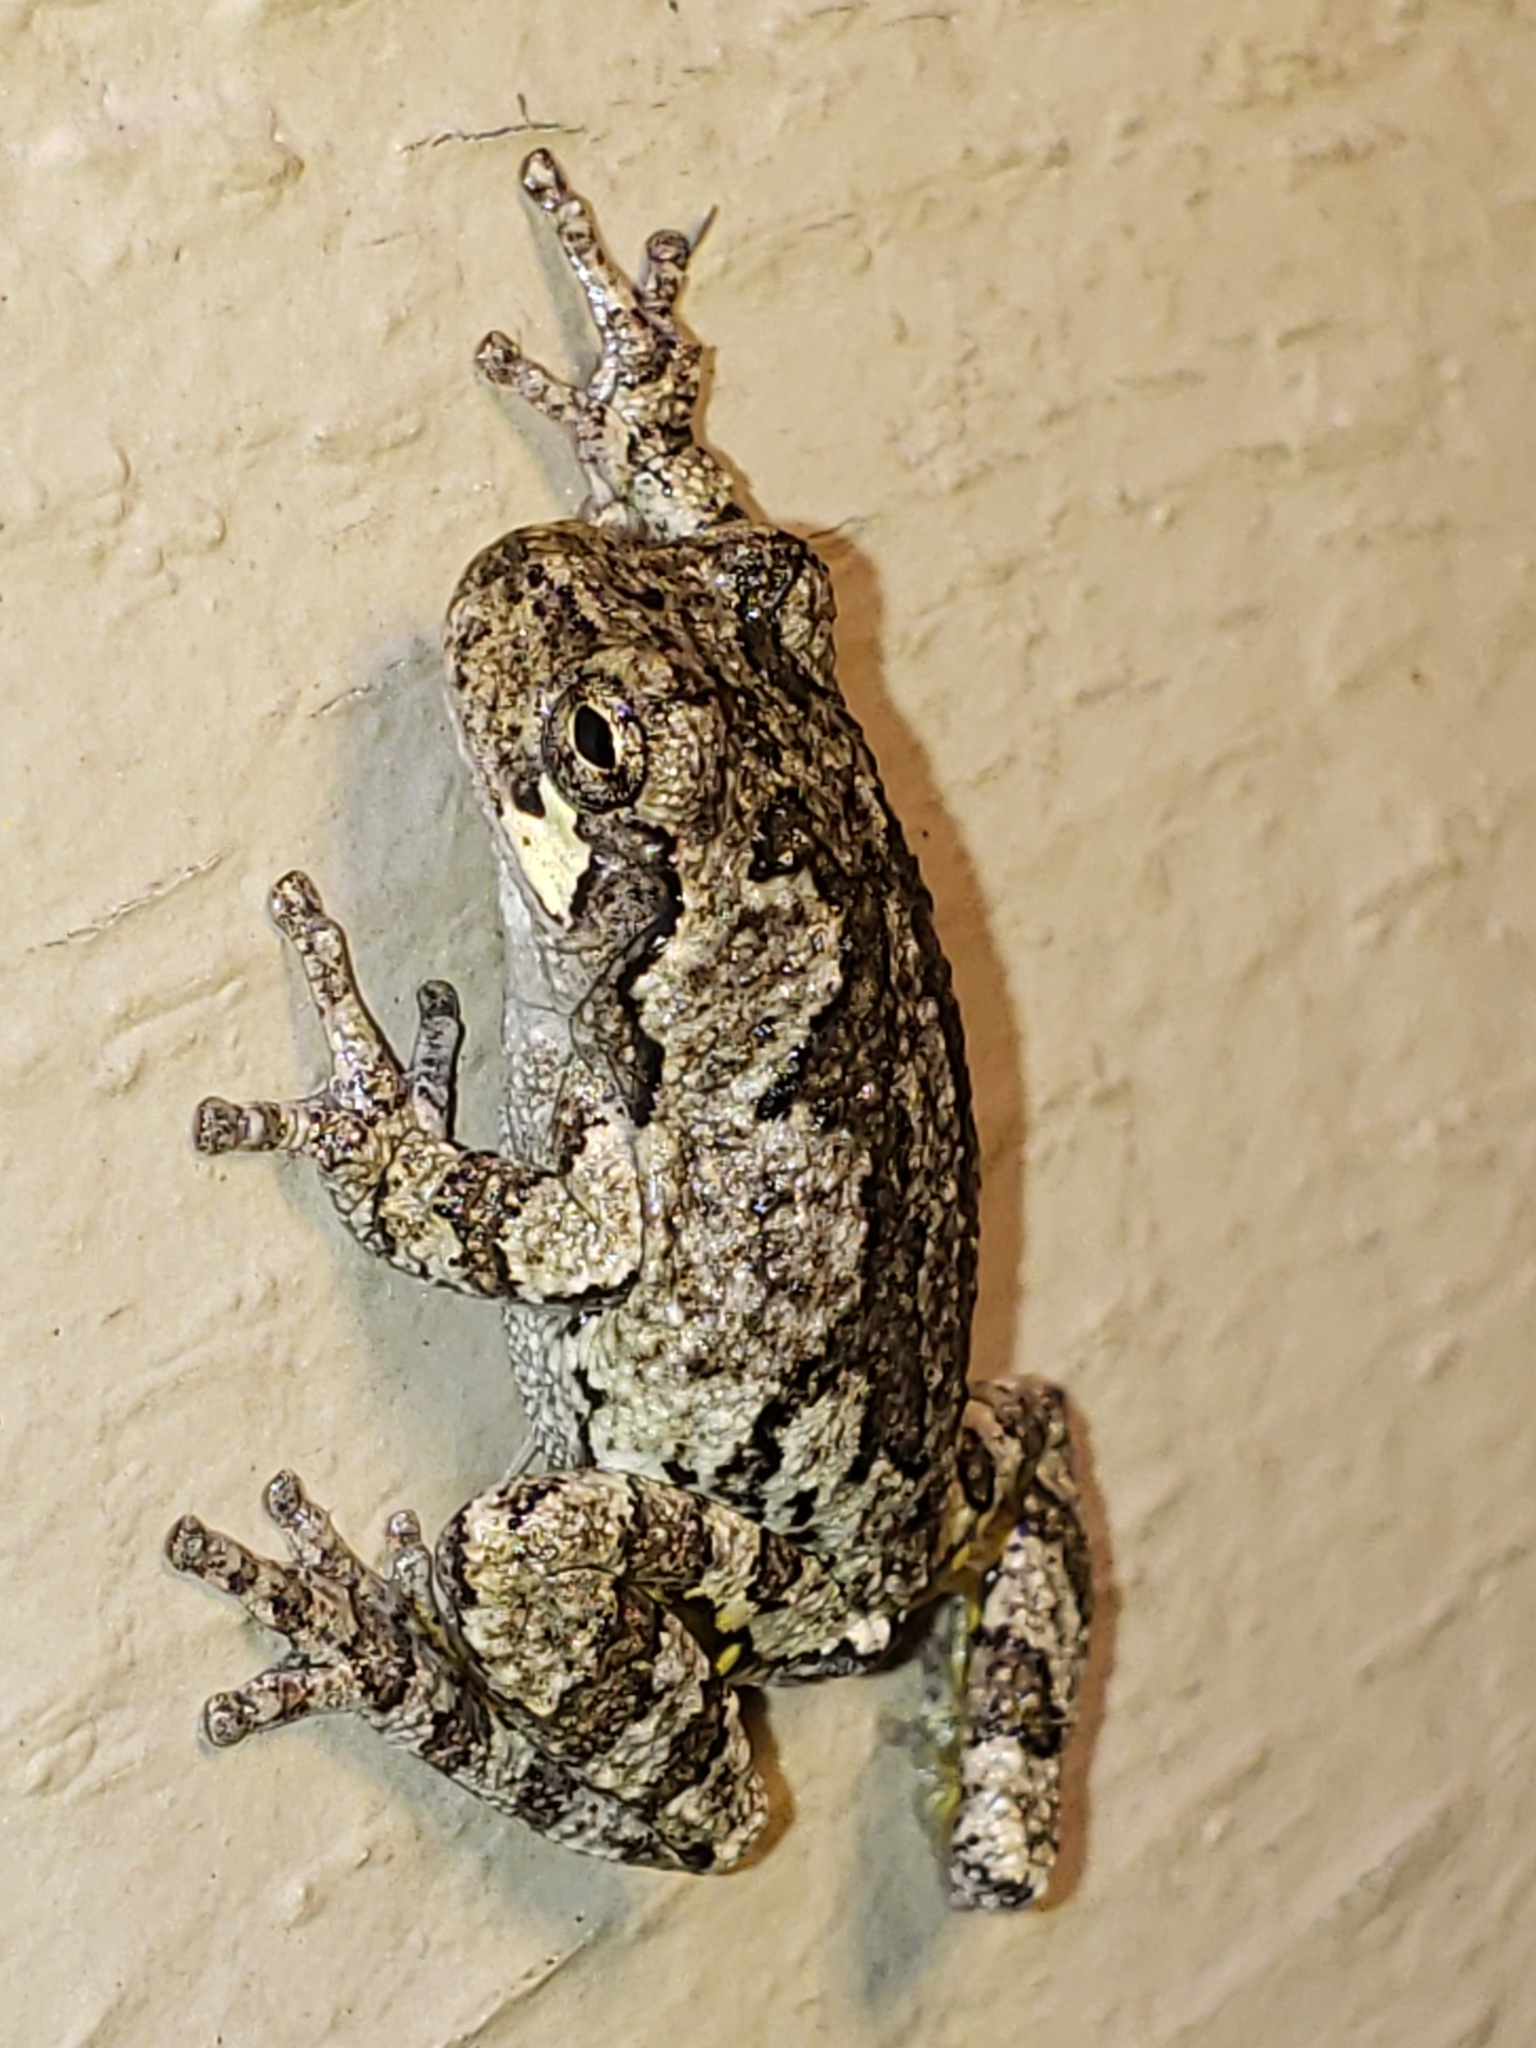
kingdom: Animalia
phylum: Chordata
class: Amphibia
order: Anura
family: Hylidae
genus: Hyla
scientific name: Hyla
